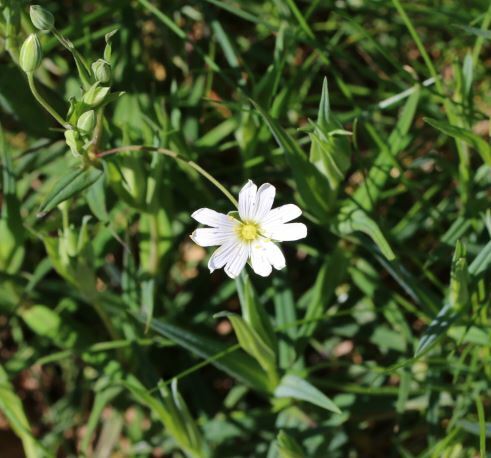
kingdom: Plantae
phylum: Tracheophyta
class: Magnoliopsida
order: Caryophyllales
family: Caryophyllaceae
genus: Rabelera
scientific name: Rabelera holostea
